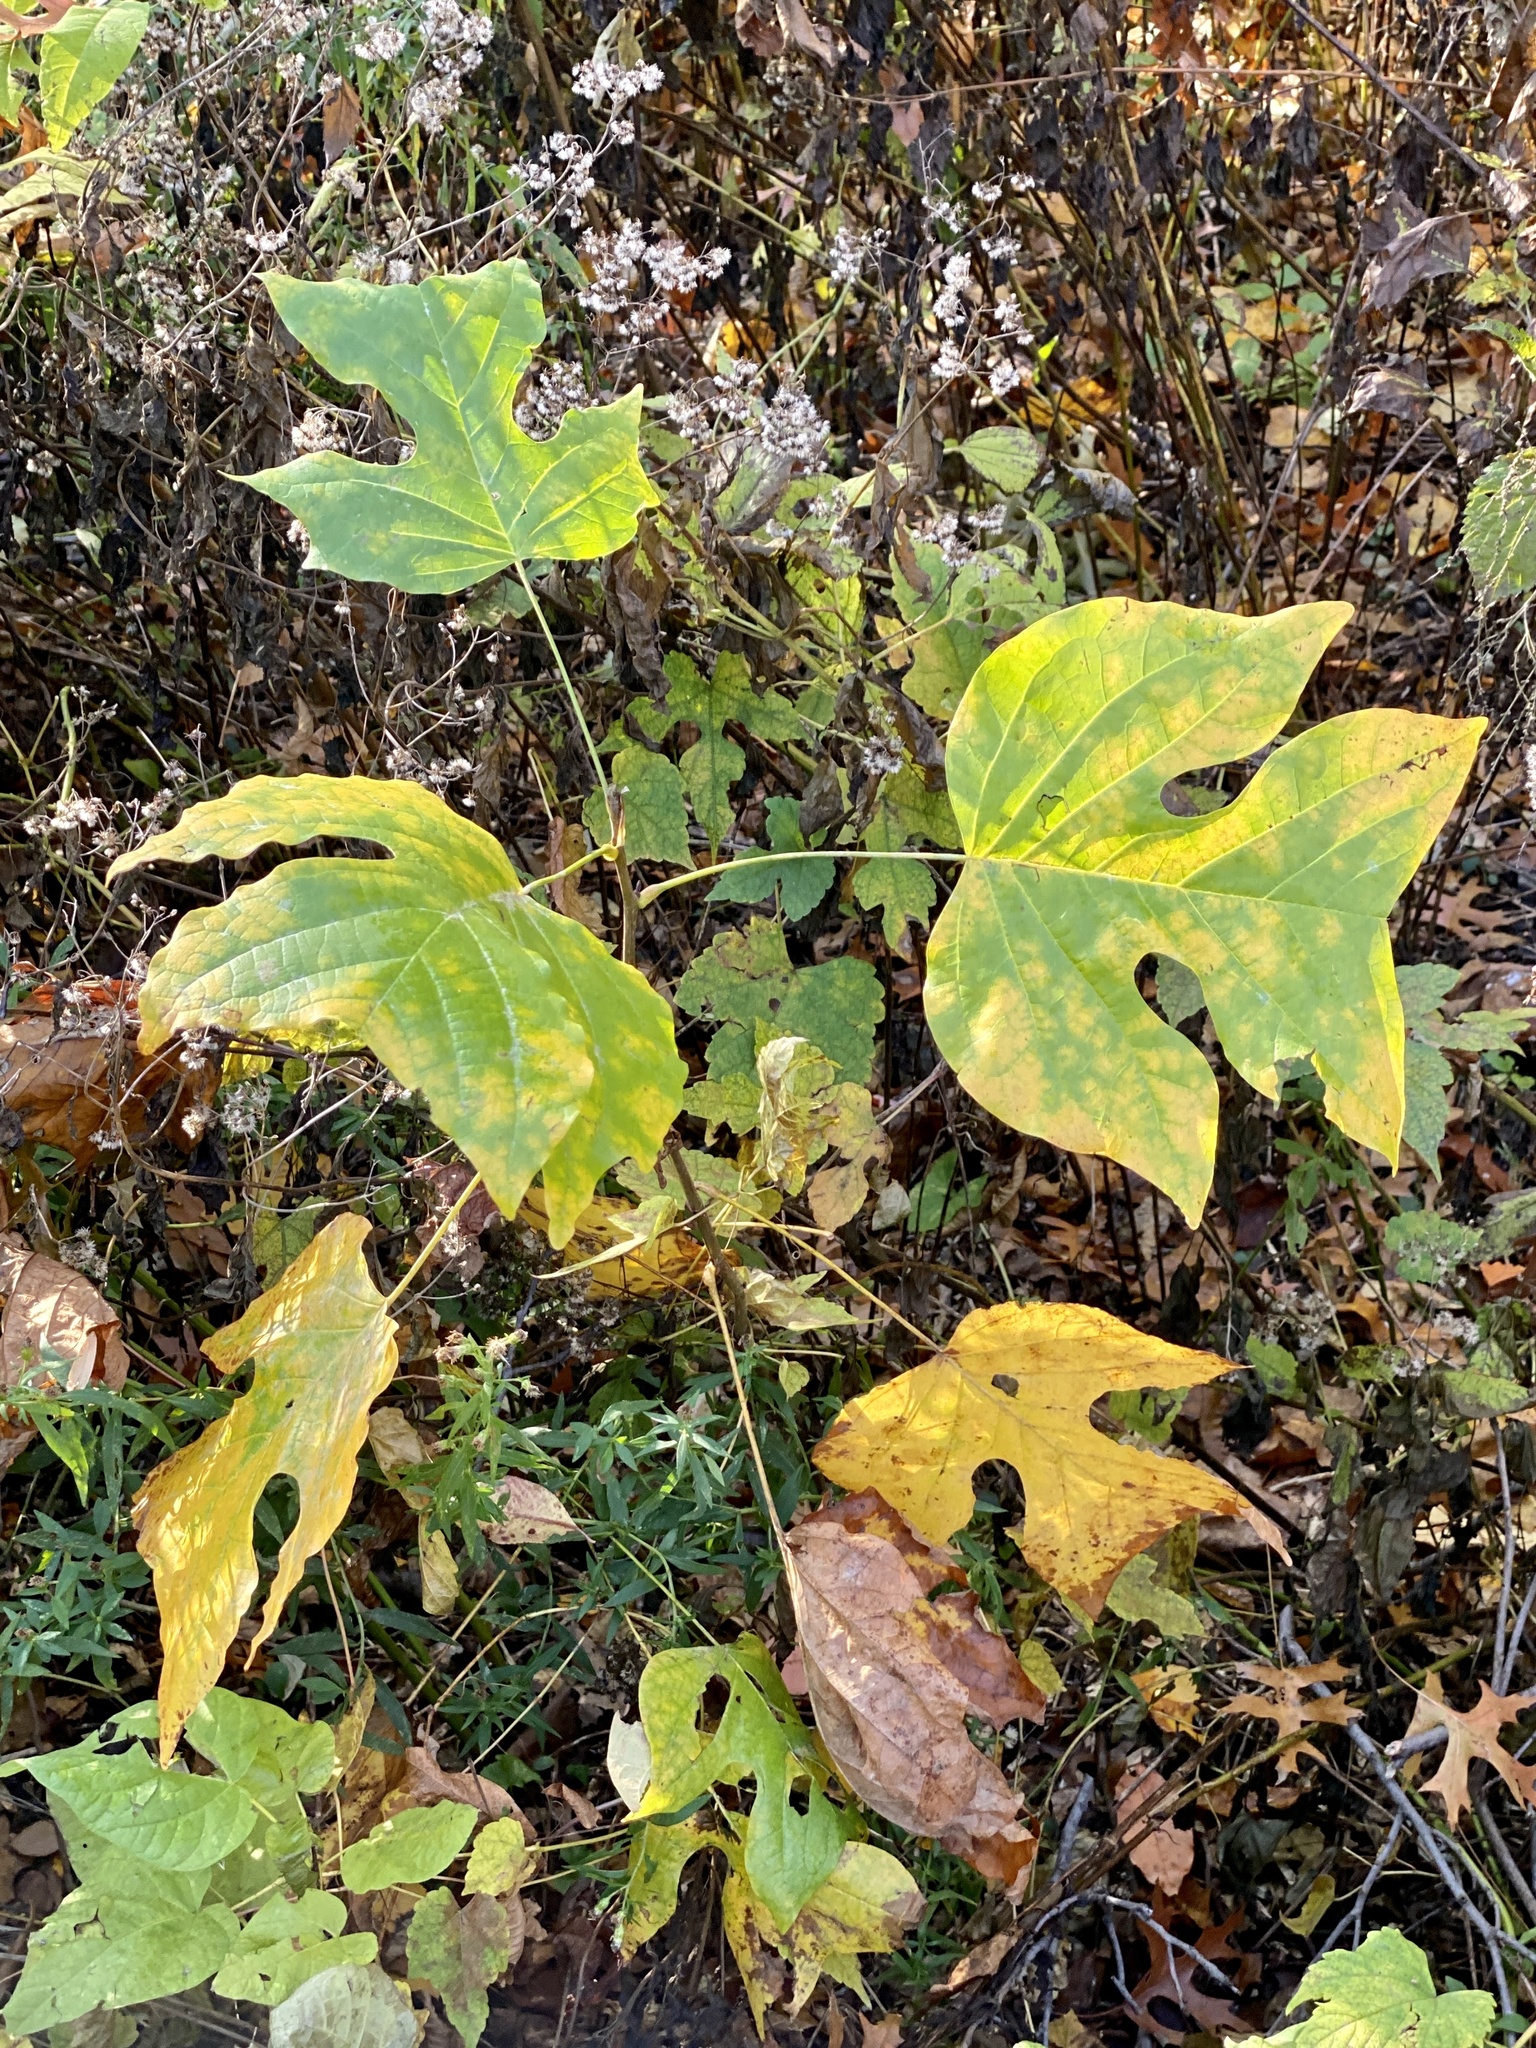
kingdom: Plantae
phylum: Tracheophyta
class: Magnoliopsida
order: Magnoliales
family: Magnoliaceae
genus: Liriodendron
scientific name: Liriodendron tulipifera
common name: Tulip tree
